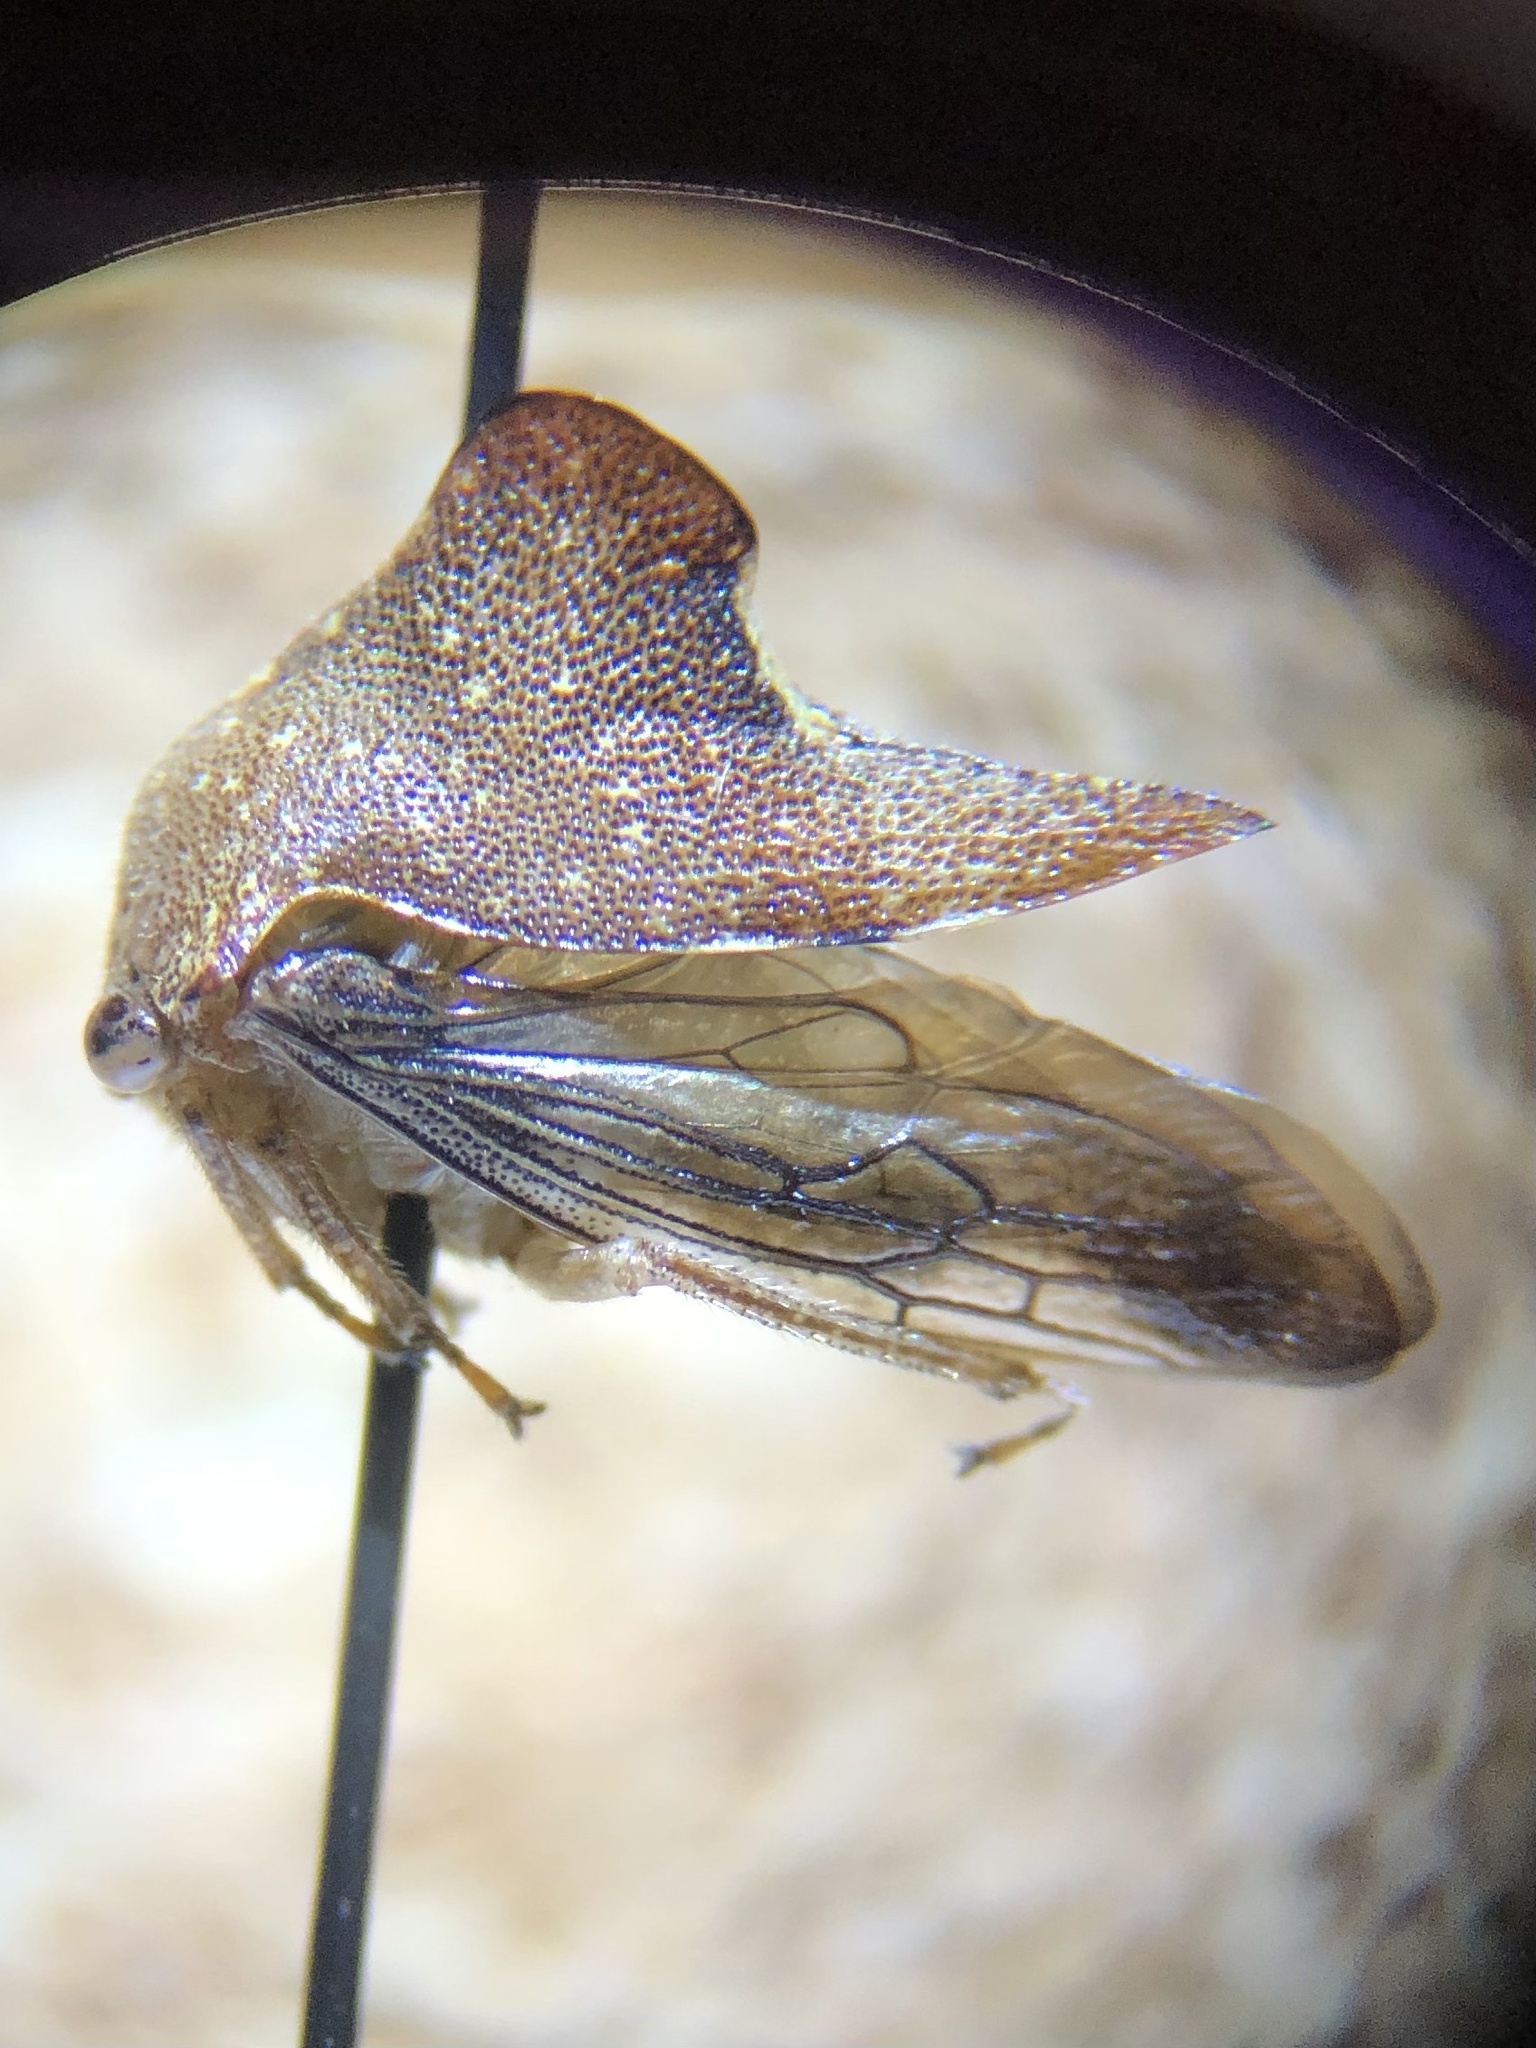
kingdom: Animalia
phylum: Arthropoda
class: Insecta
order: Hemiptera
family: Membracidae
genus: Telamona
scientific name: Telamona monticola
